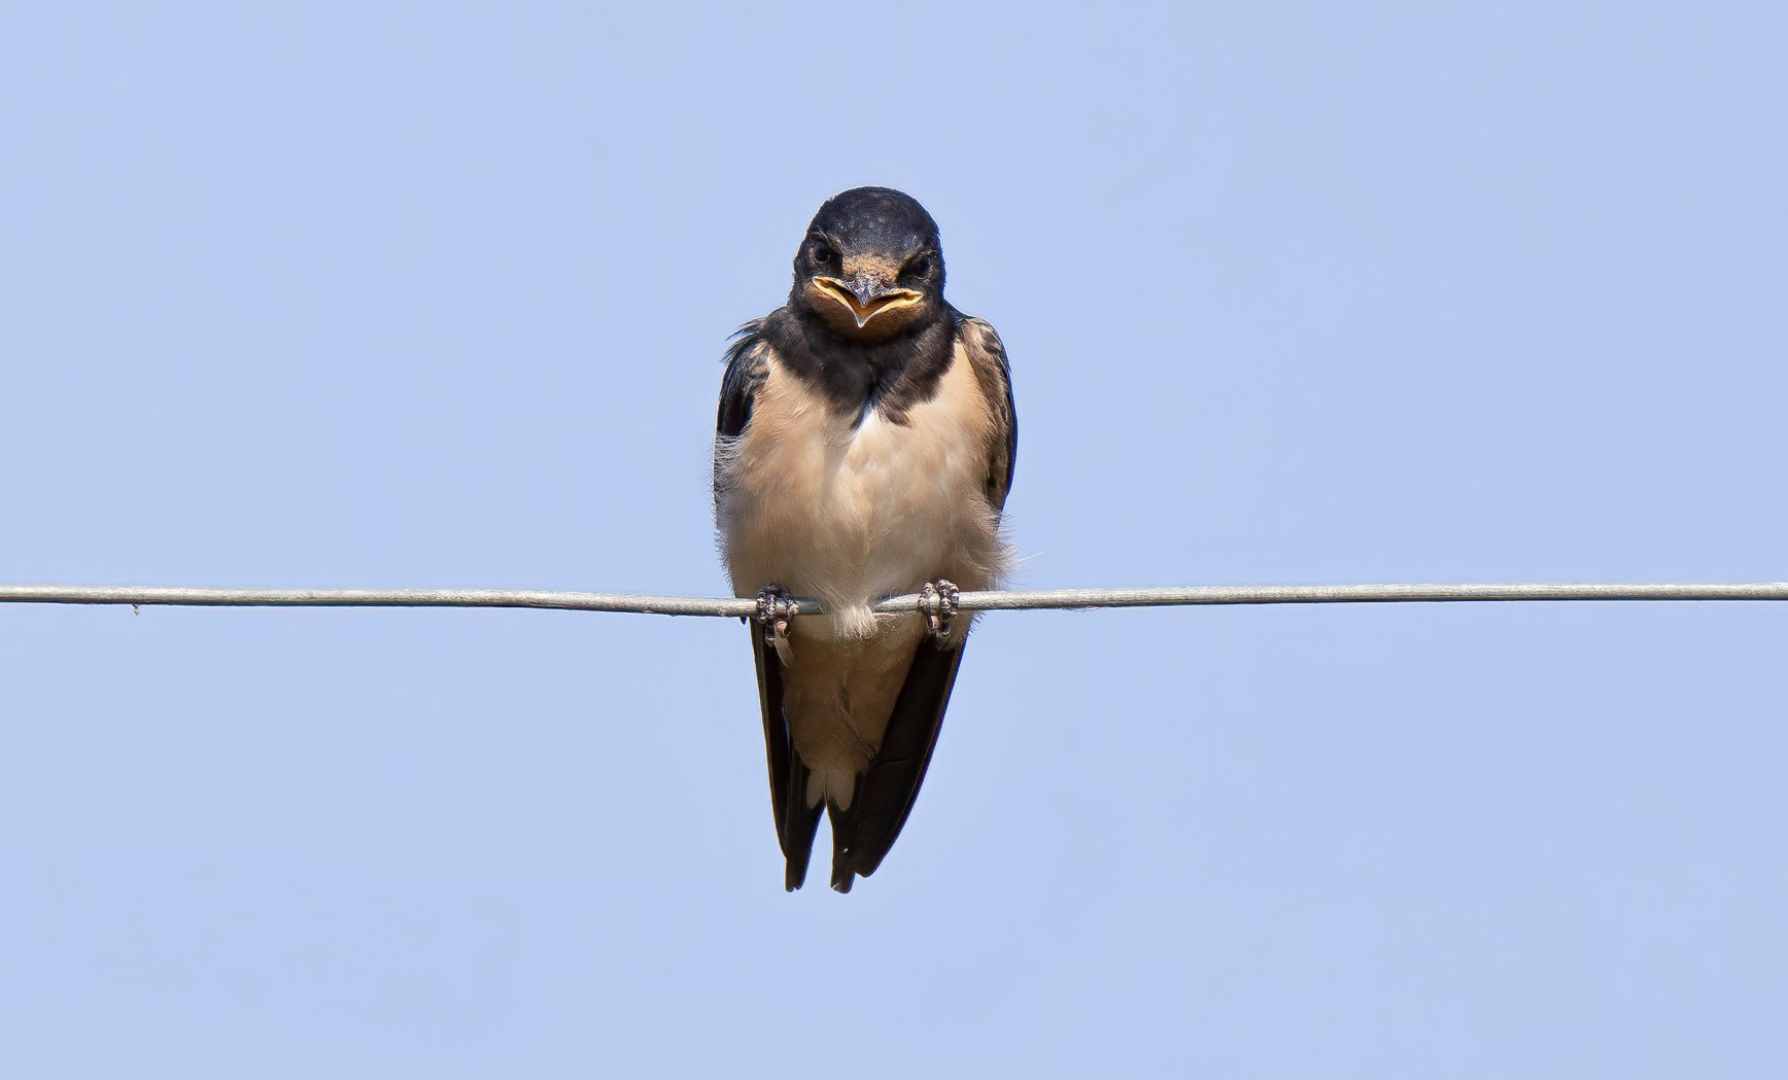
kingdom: Animalia
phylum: Chordata
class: Aves
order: Passeriformes
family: Hirundinidae
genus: Hirundo
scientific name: Hirundo rustica
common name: Barn swallow
